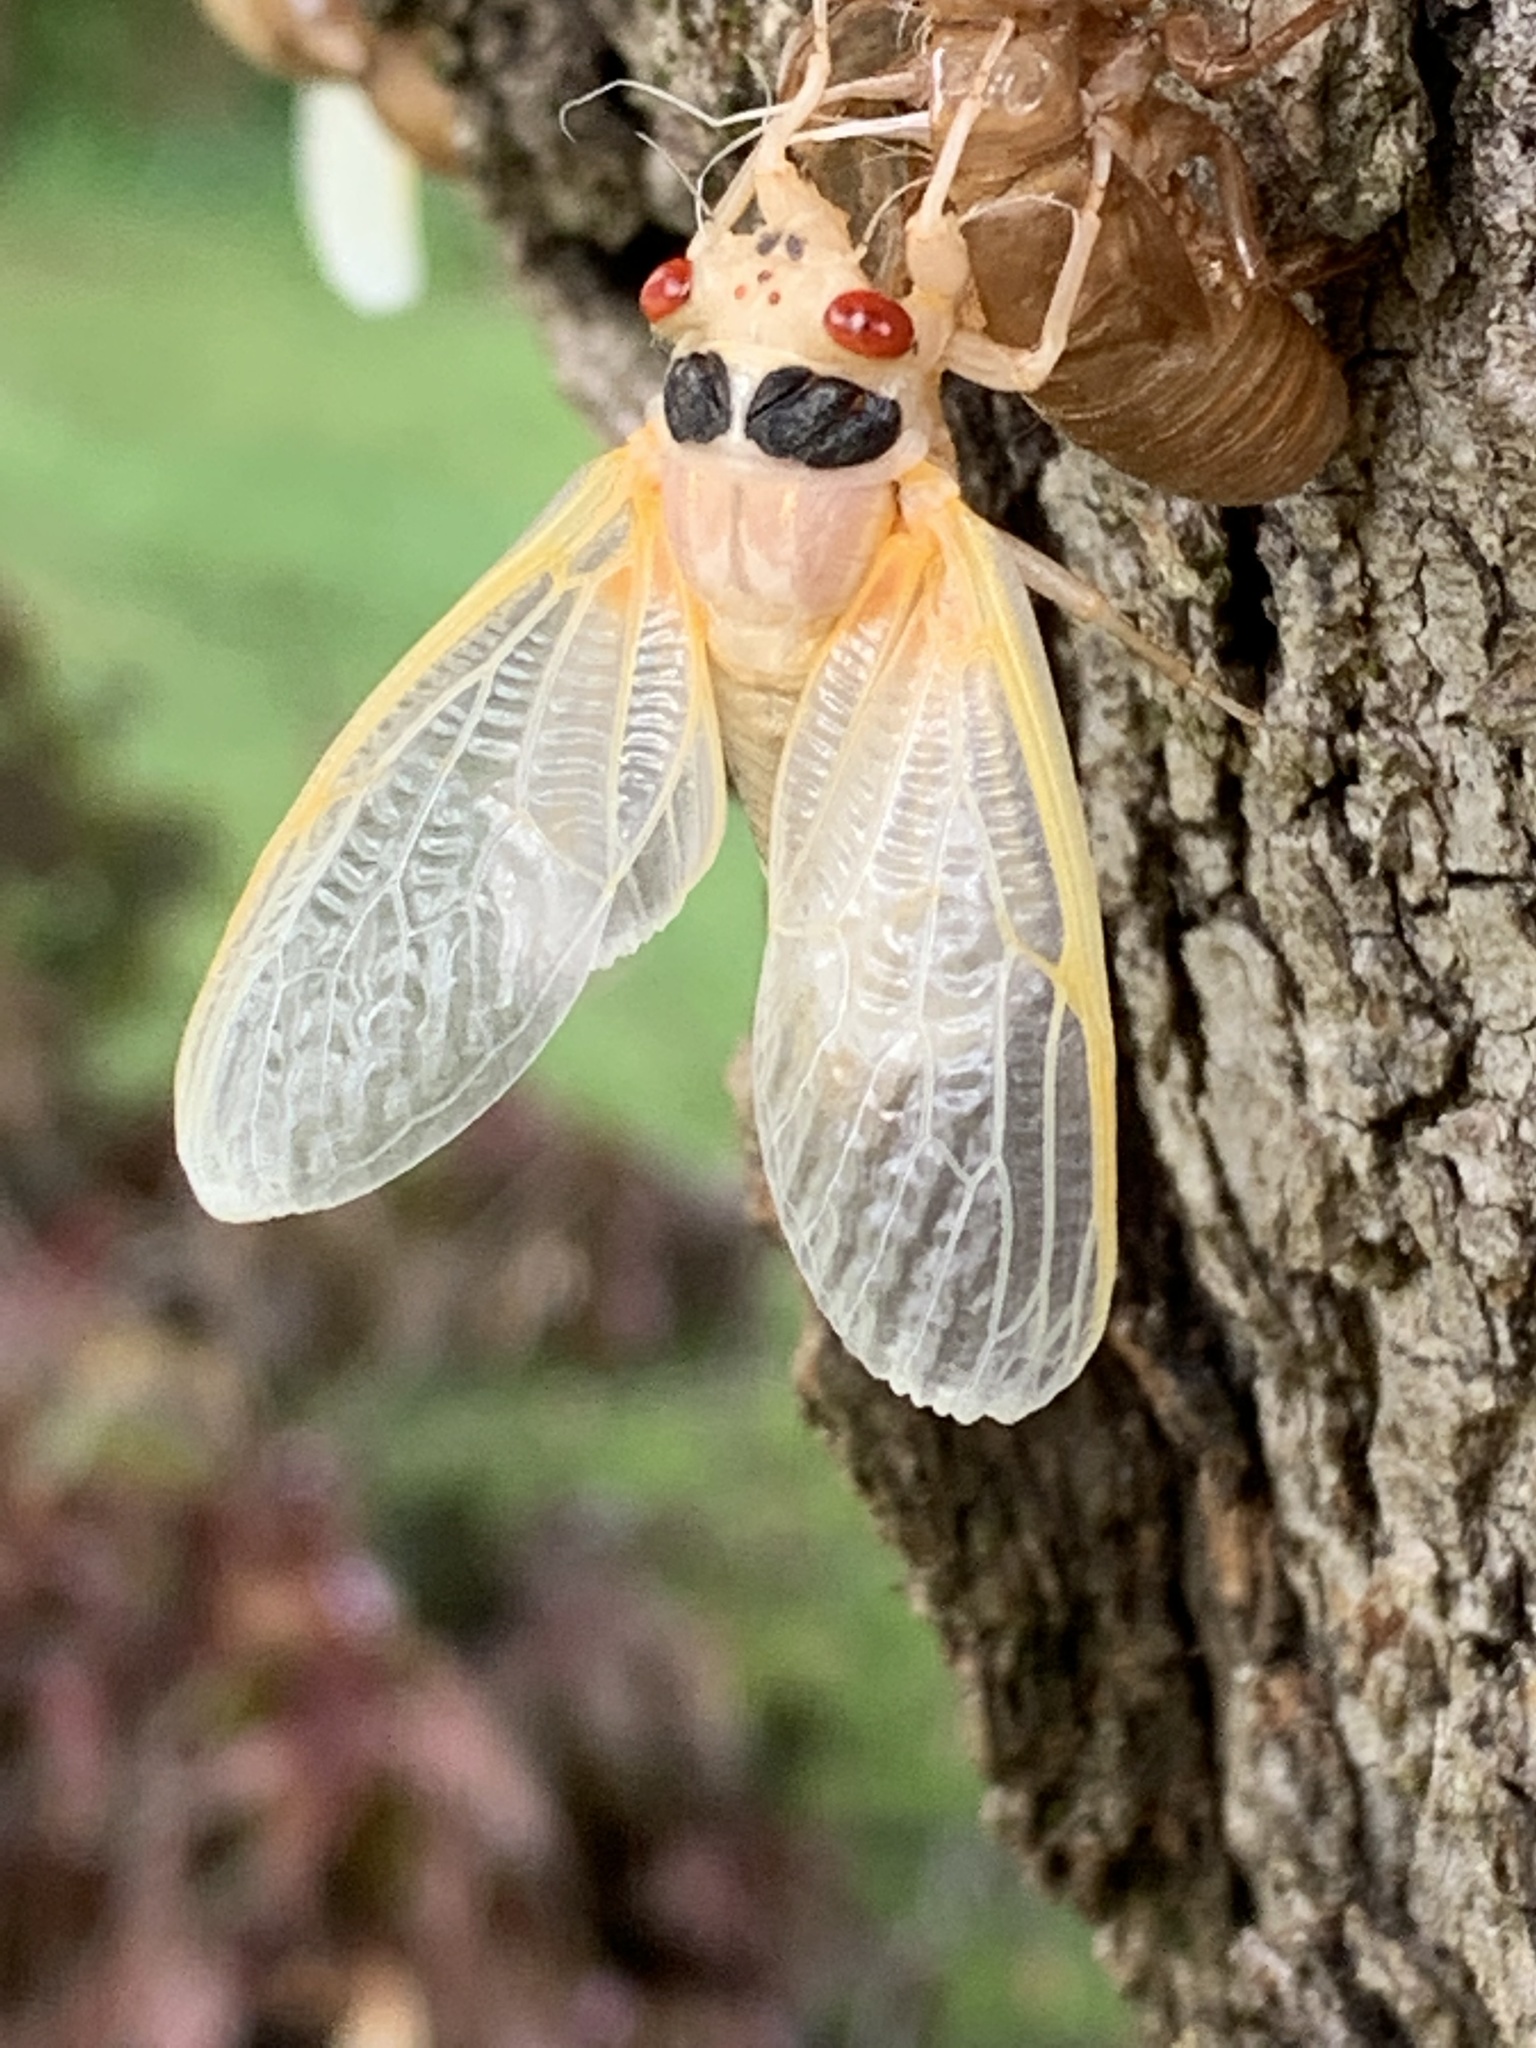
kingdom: Animalia
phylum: Arthropoda
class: Insecta
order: Hemiptera
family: Cicadidae
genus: Magicicada
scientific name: Magicicada
